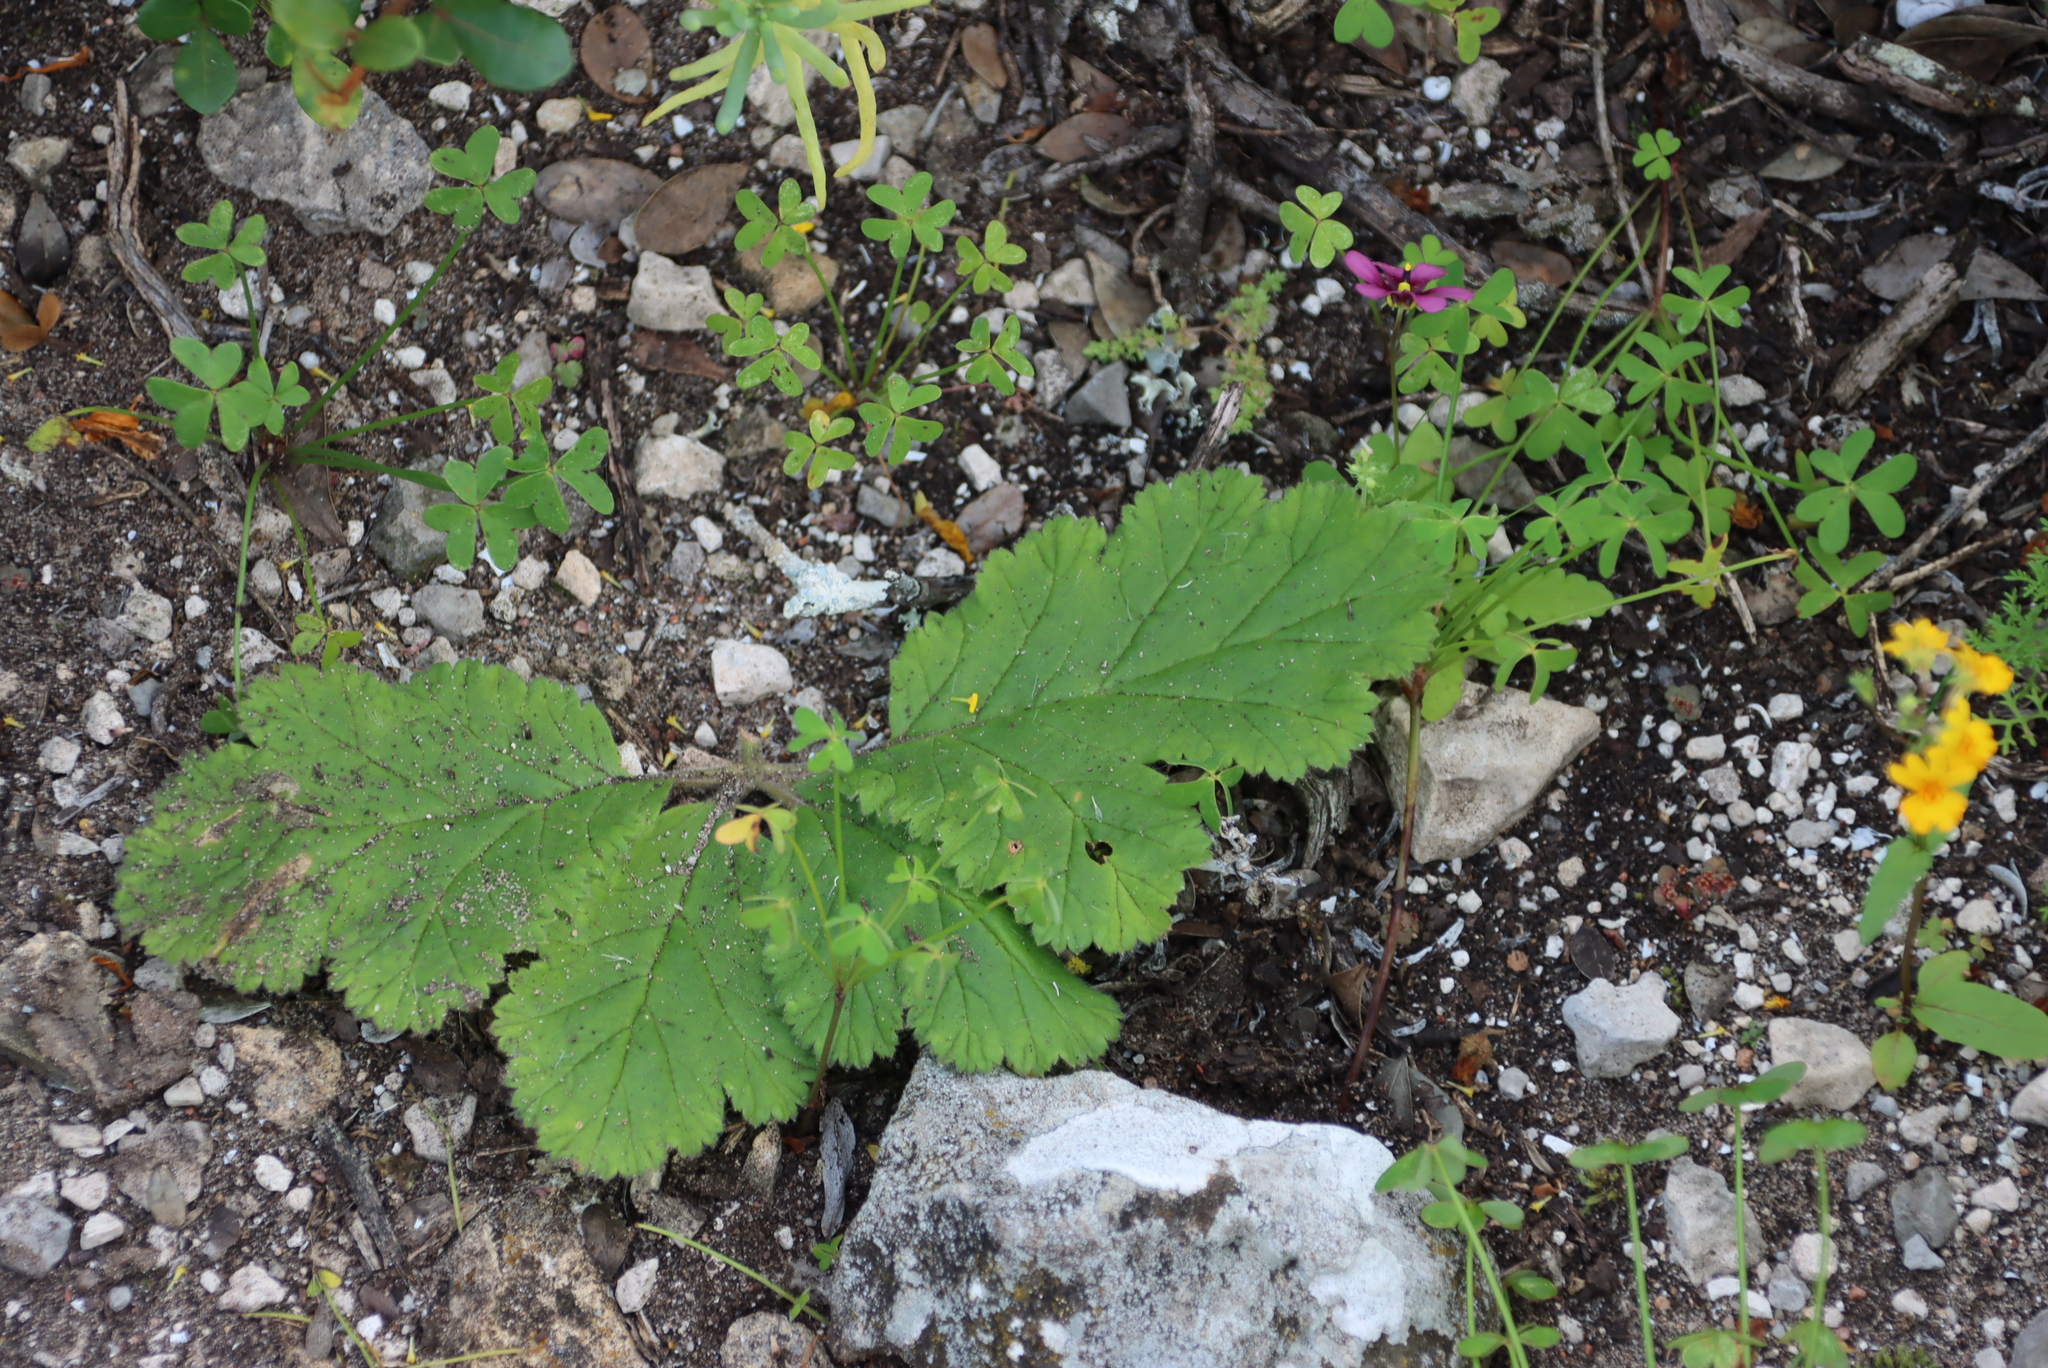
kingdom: Plantae
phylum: Tracheophyta
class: Magnoliopsida
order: Geraniales
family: Geraniaceae
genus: Pelargonium
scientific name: Pelargonium lobatum
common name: Vine-leaf pelargonium
